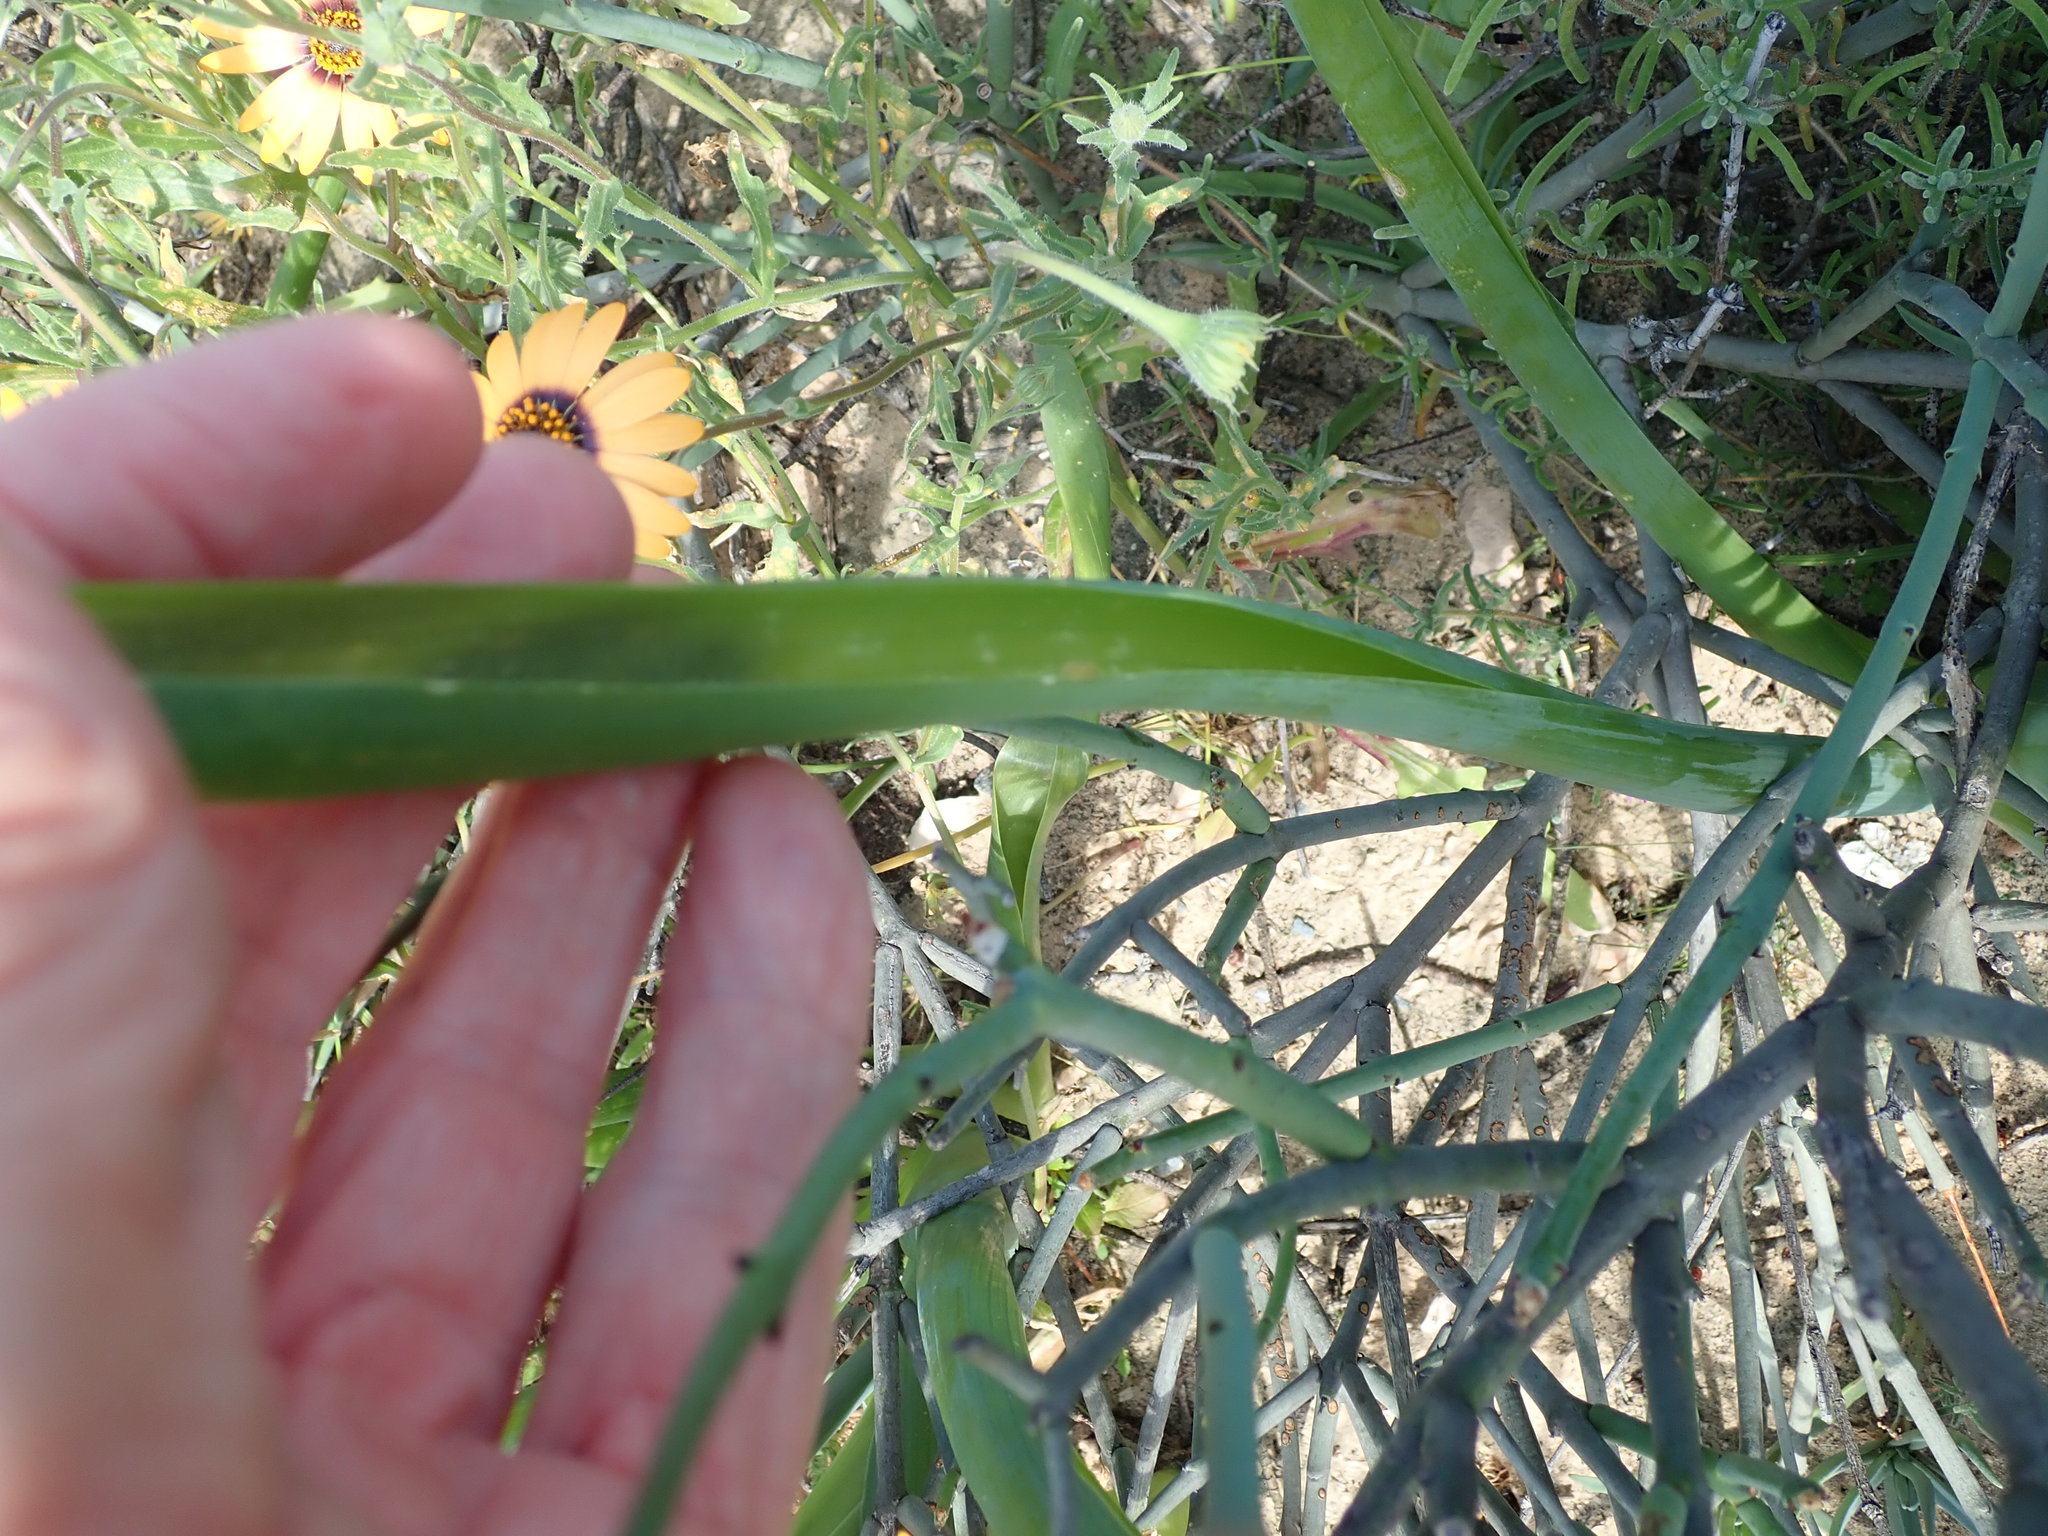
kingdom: Plantae
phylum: Tracheophyta
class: Liliopsida
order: Asparagales
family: Asparagaceae
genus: Albuca
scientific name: Albuca canadensis
